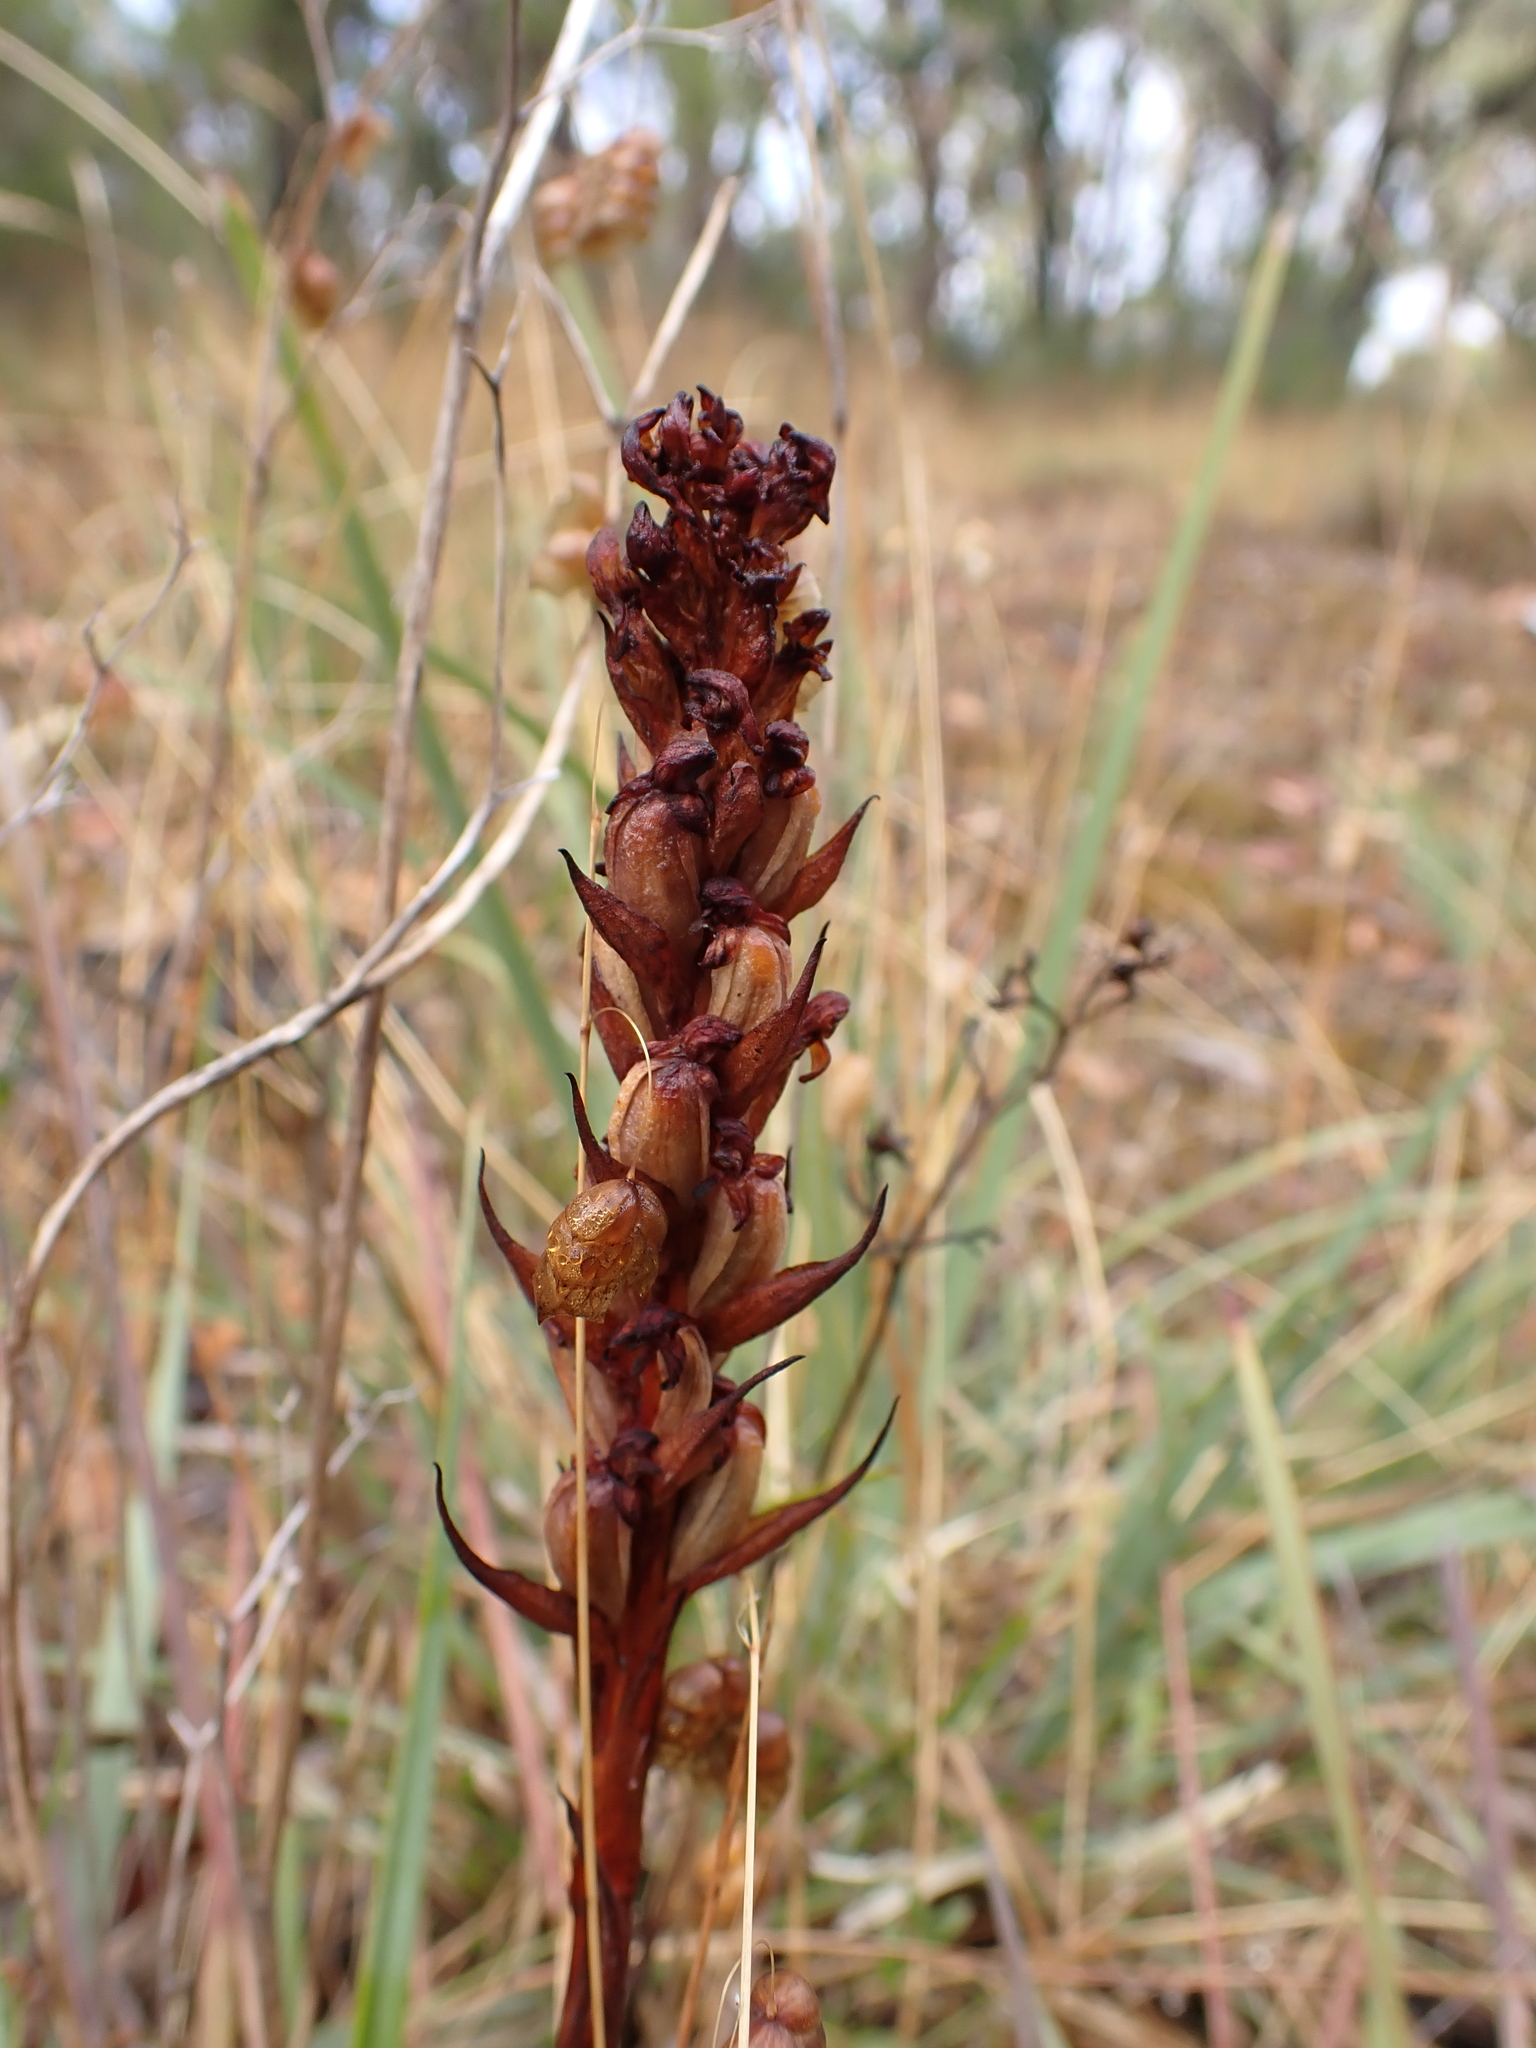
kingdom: Plantae
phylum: Tracheophyta
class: Liliopsida
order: Asparagales
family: Orchidaceae
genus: Disa
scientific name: Disa bracteata
